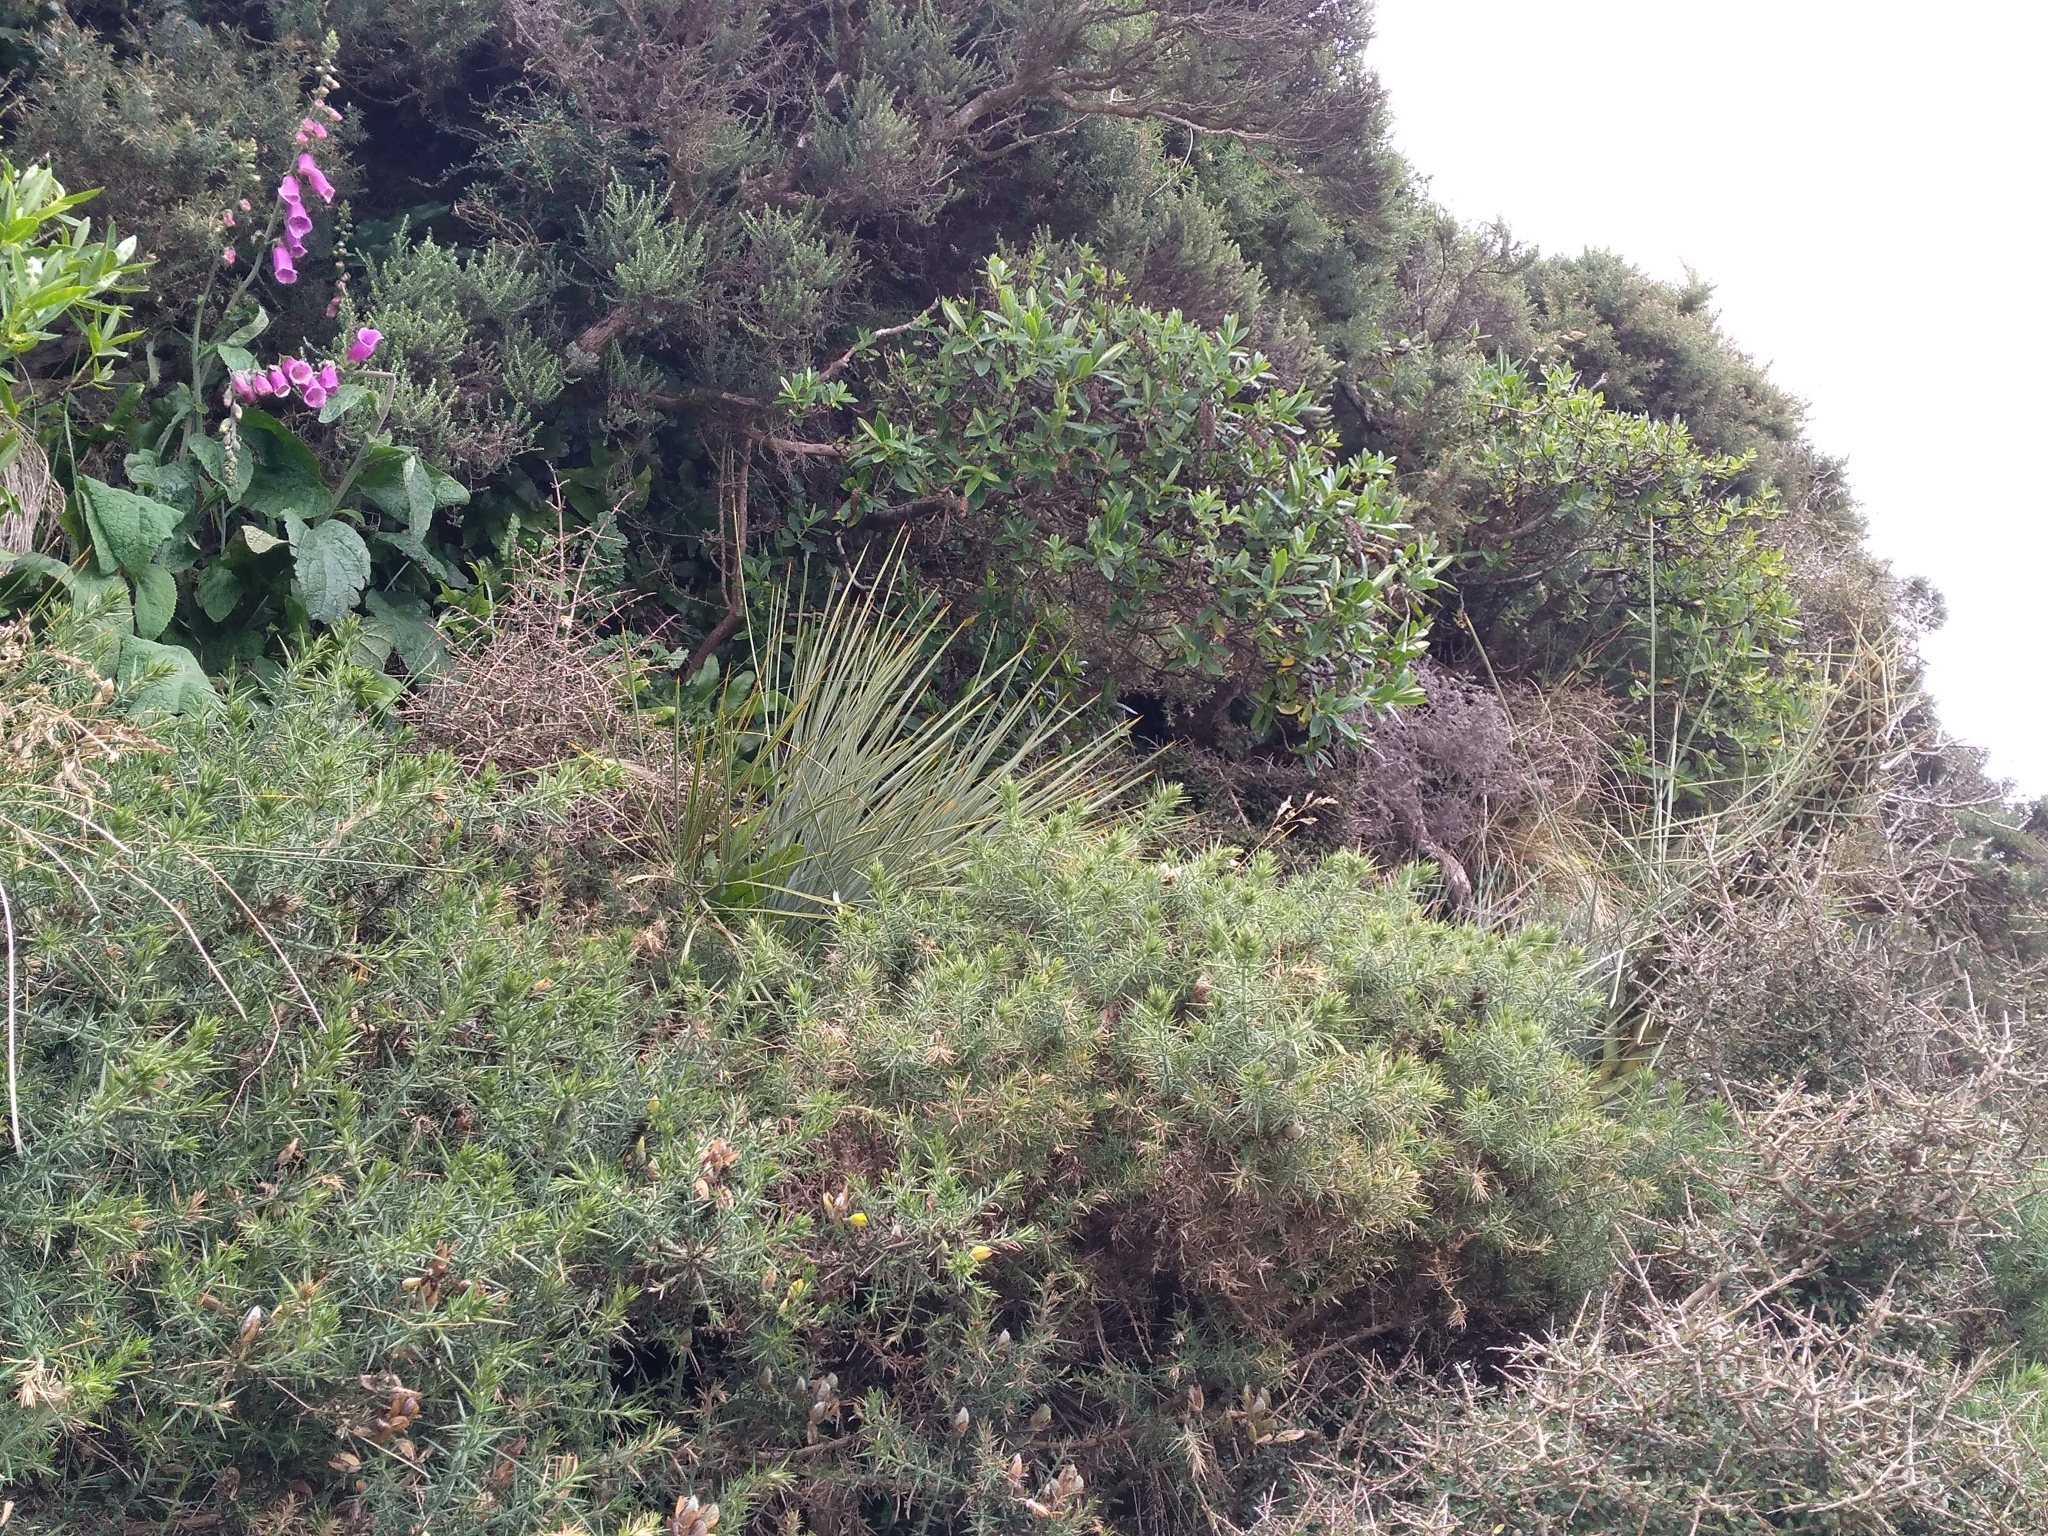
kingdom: Plantae
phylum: Tracheophyta
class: Magnoliopsida
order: Apiales
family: Apiaceae
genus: Aciphylla
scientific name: Aciphylla squarrosa
